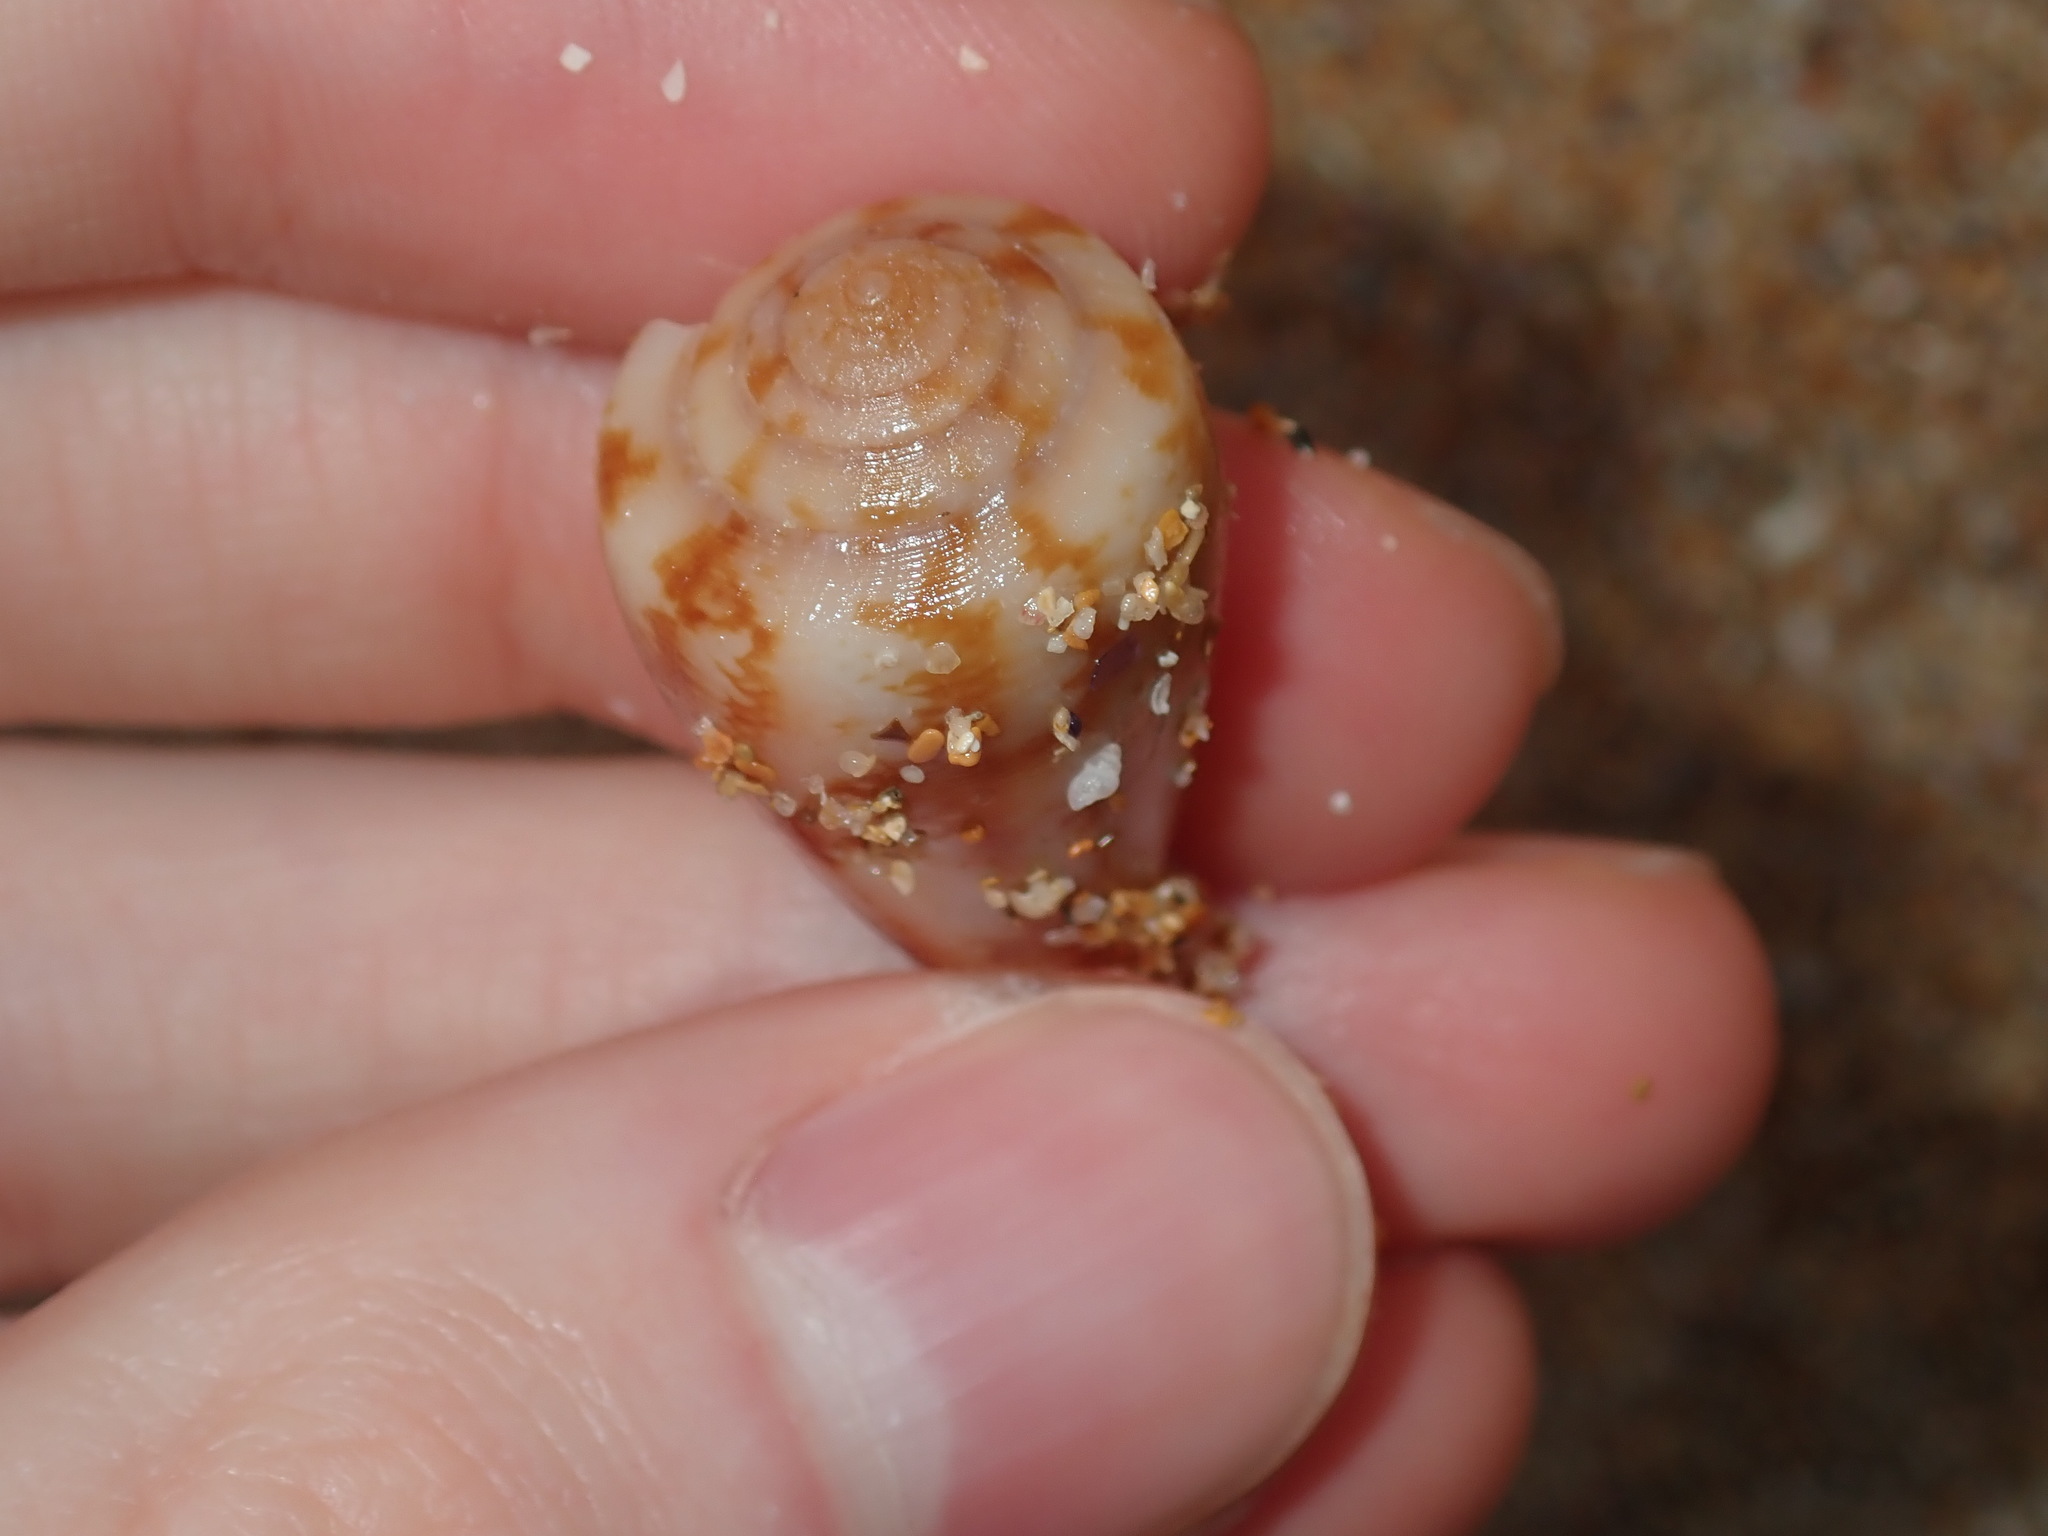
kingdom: Animalia
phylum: Mollusca
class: Gastropoda
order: Neogastropoda
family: Conidae
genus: Conus
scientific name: Conus anemone
